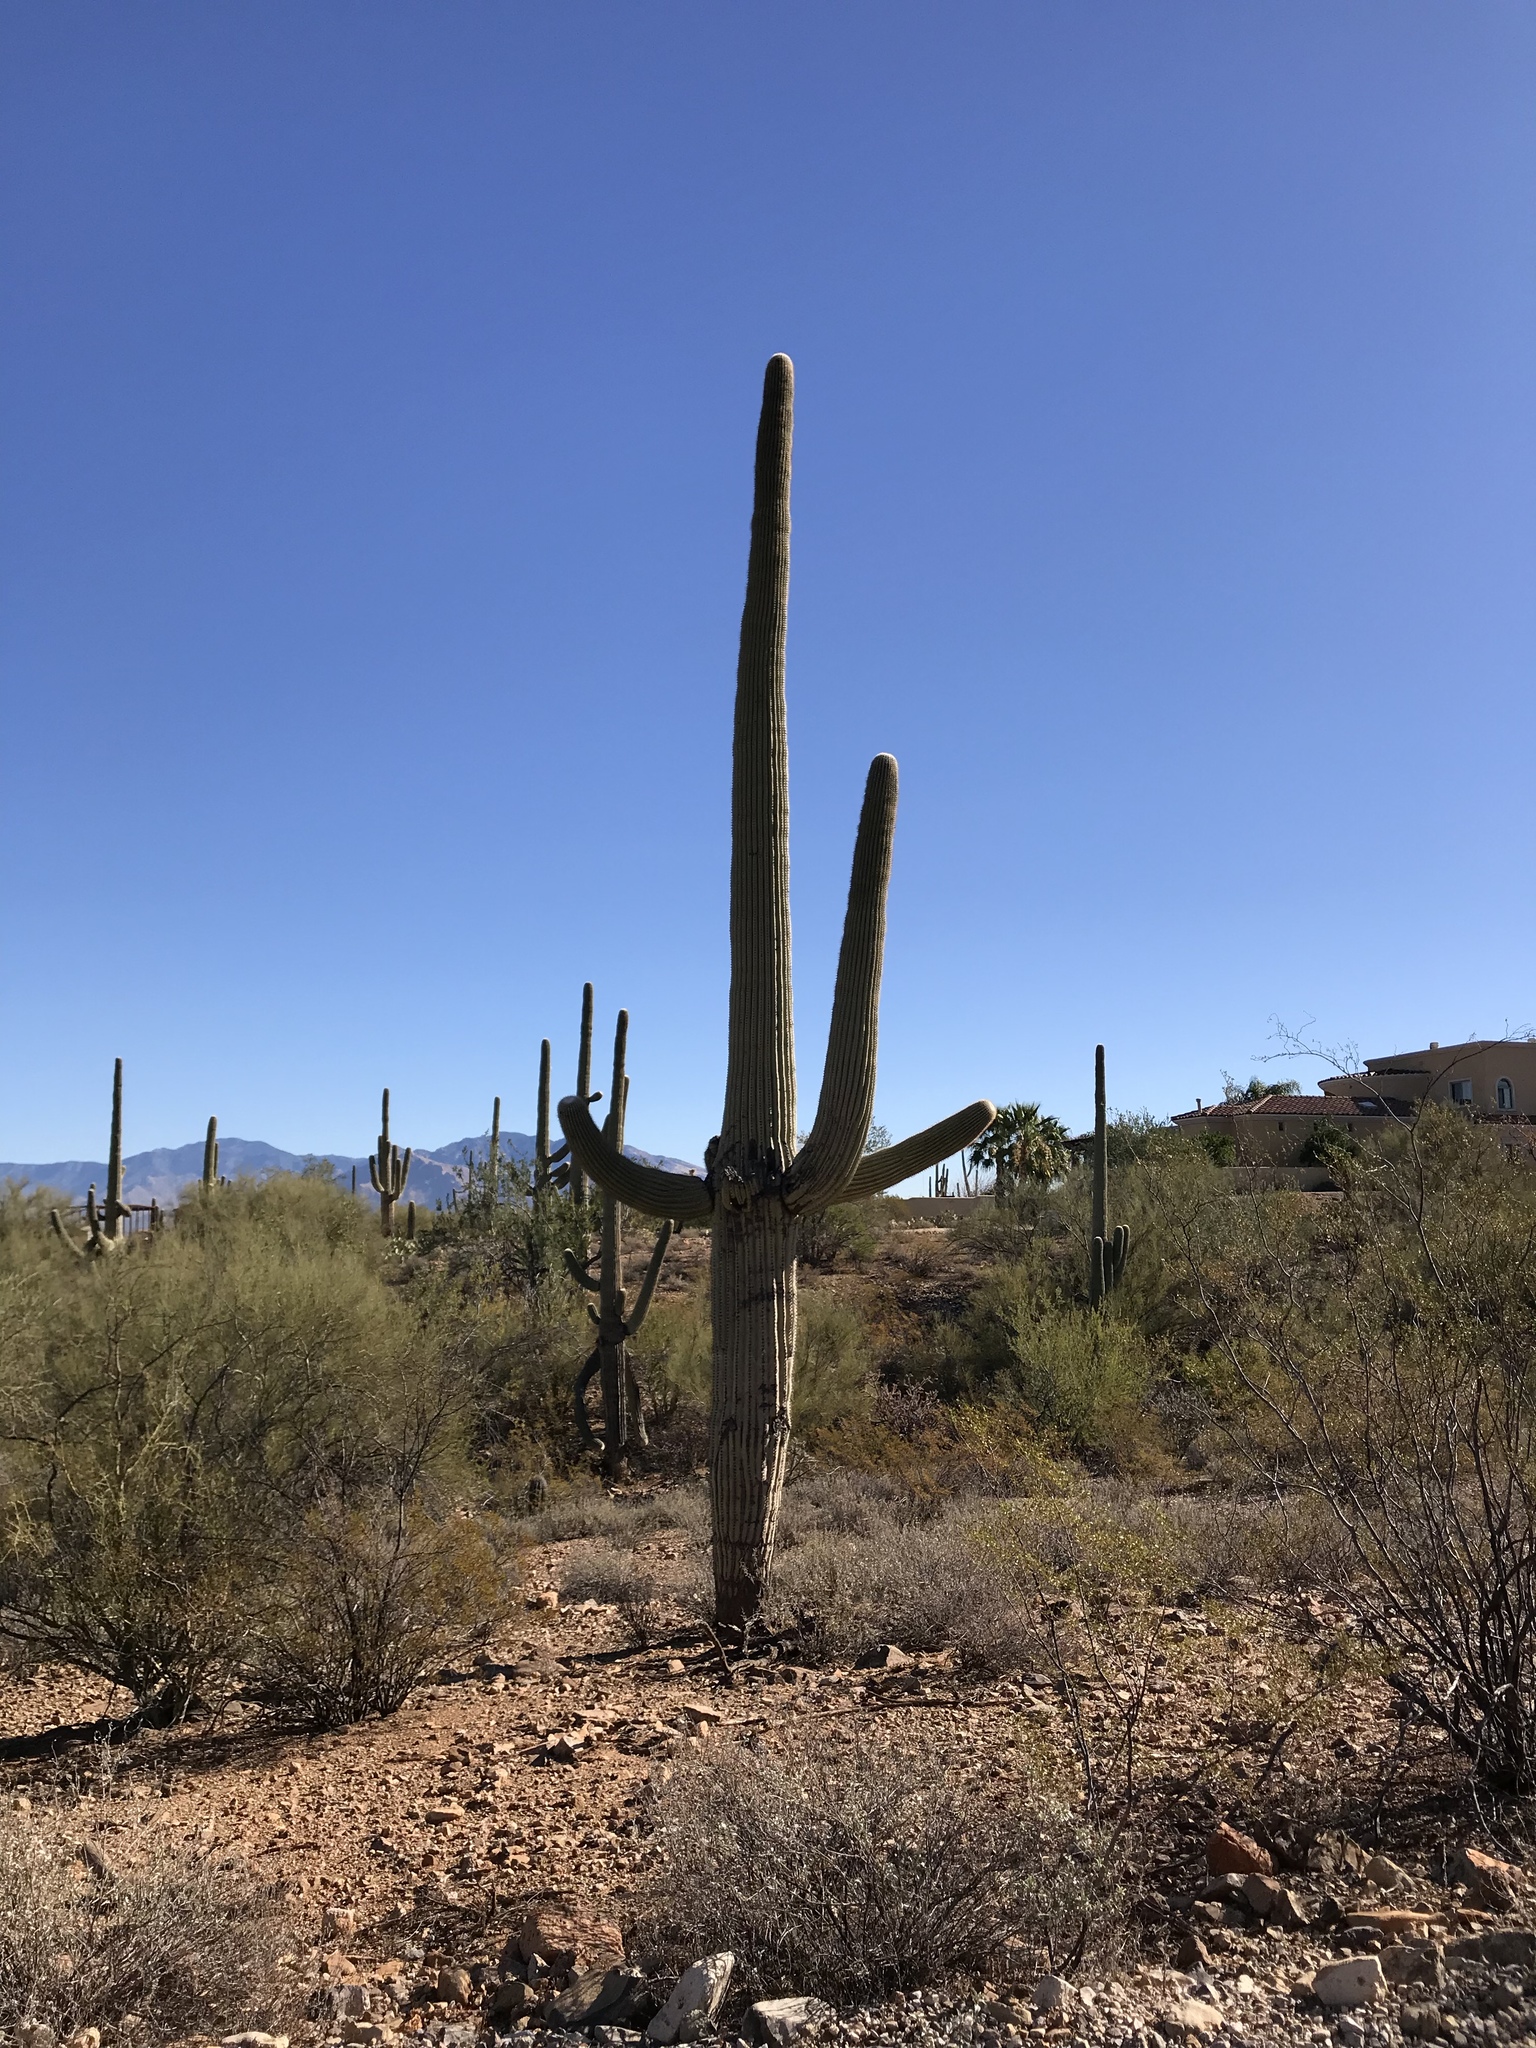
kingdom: Plantae
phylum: Tracheophyta
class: Magnoliopsida
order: Caryophyllales
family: Cactaceae
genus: Carnegiea
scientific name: Carnegiea gigantea
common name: Saguaro
